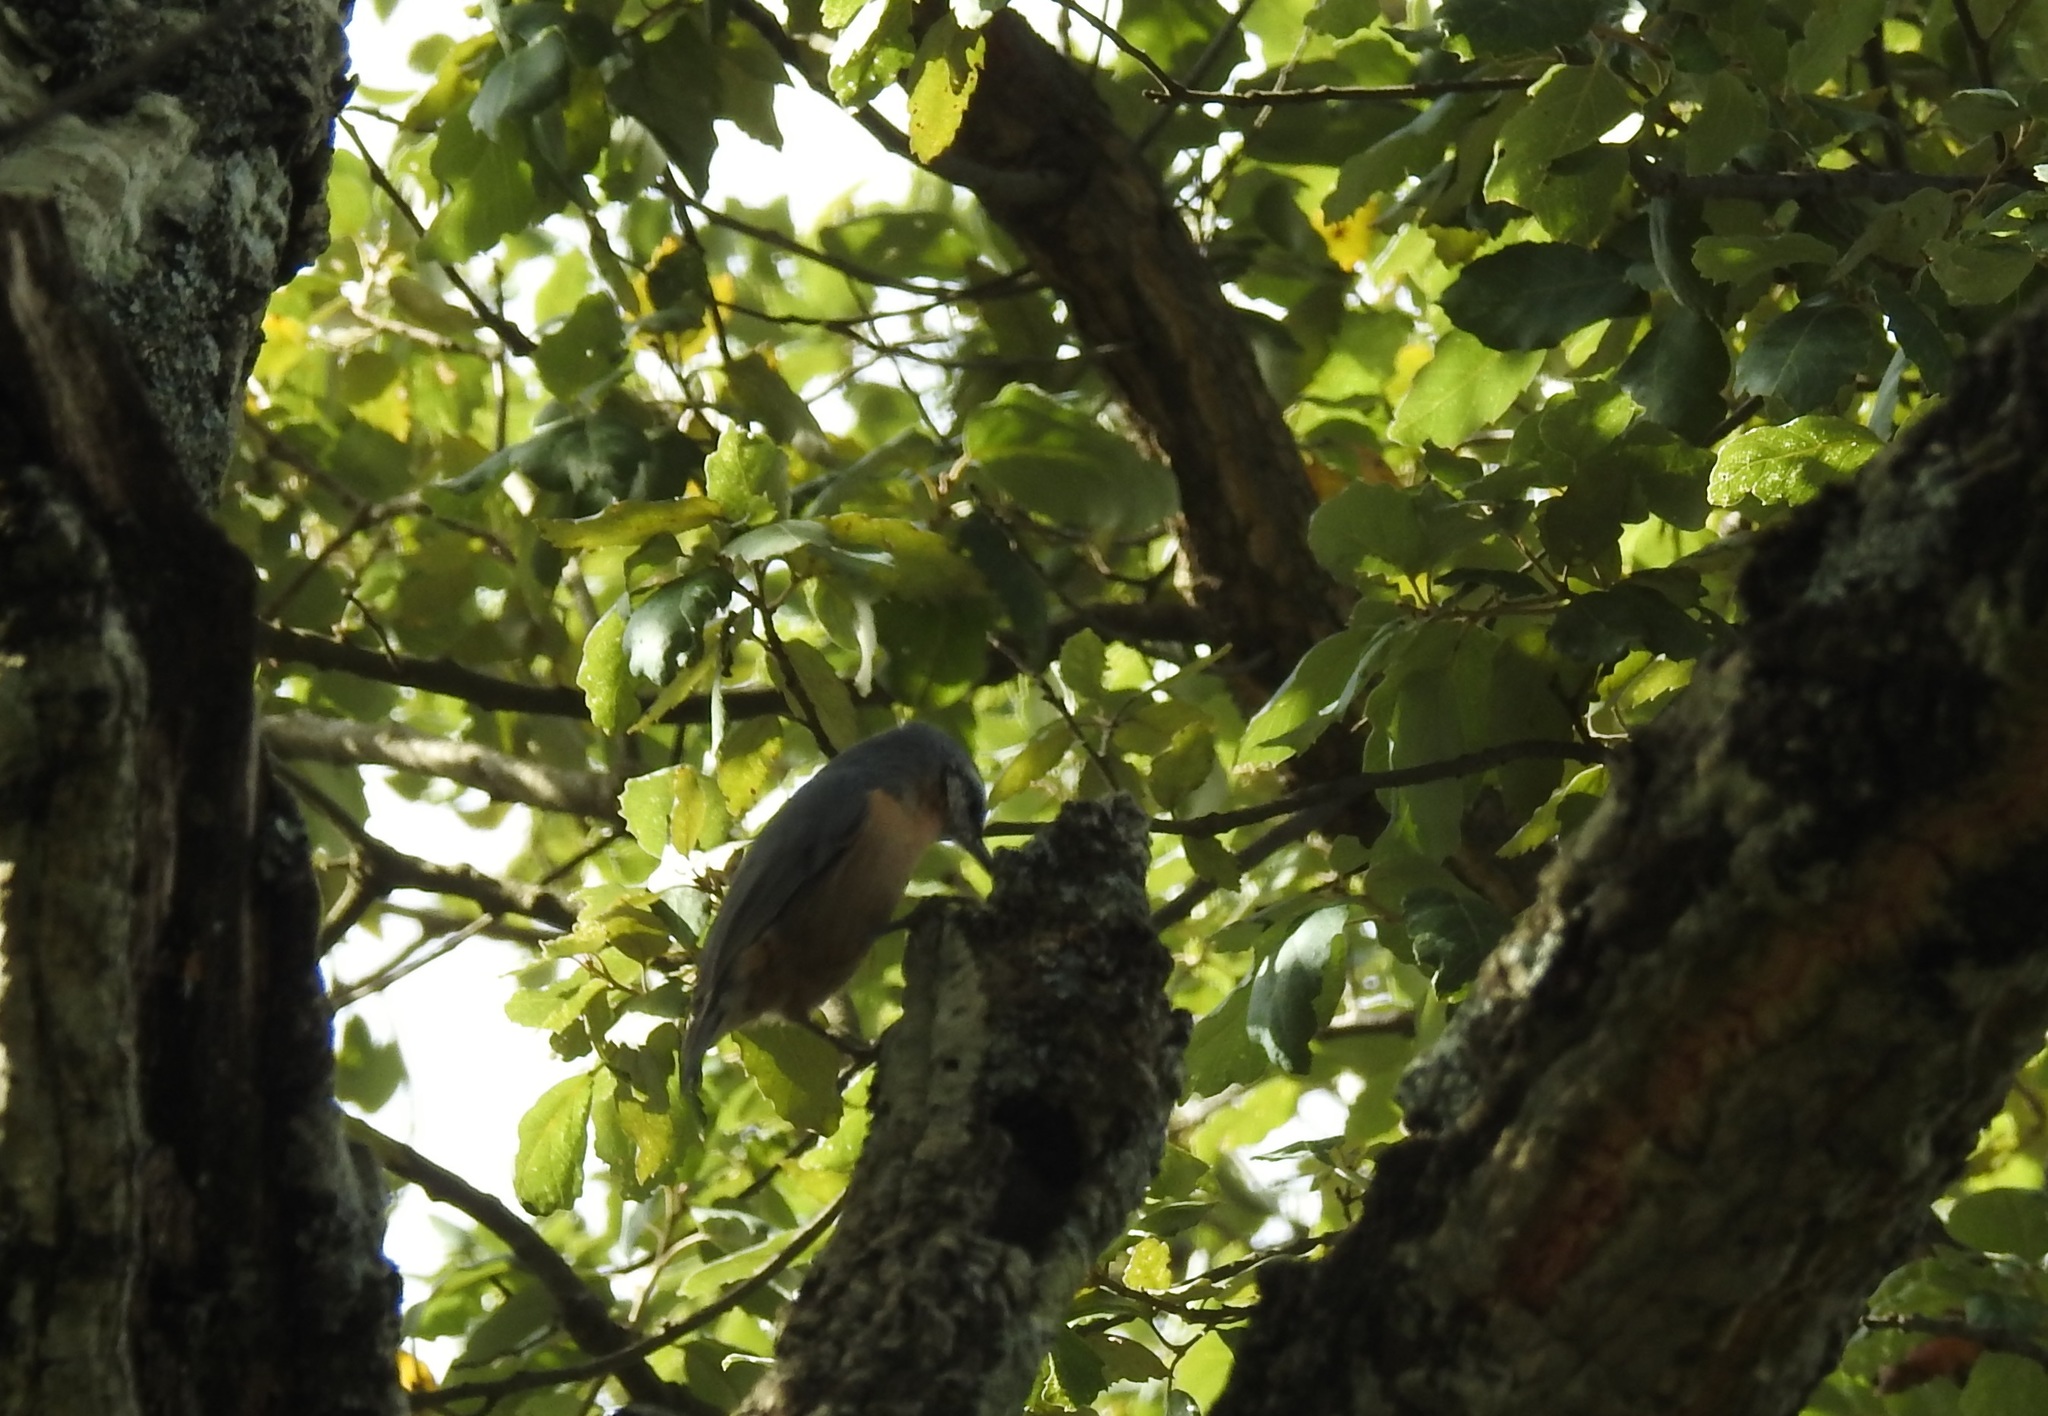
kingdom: Animalia
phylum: Chordata
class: Aves
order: Passeriformes
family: Sittidae
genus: Sitta
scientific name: Sitta ledanti
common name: Algerian nuthatch
